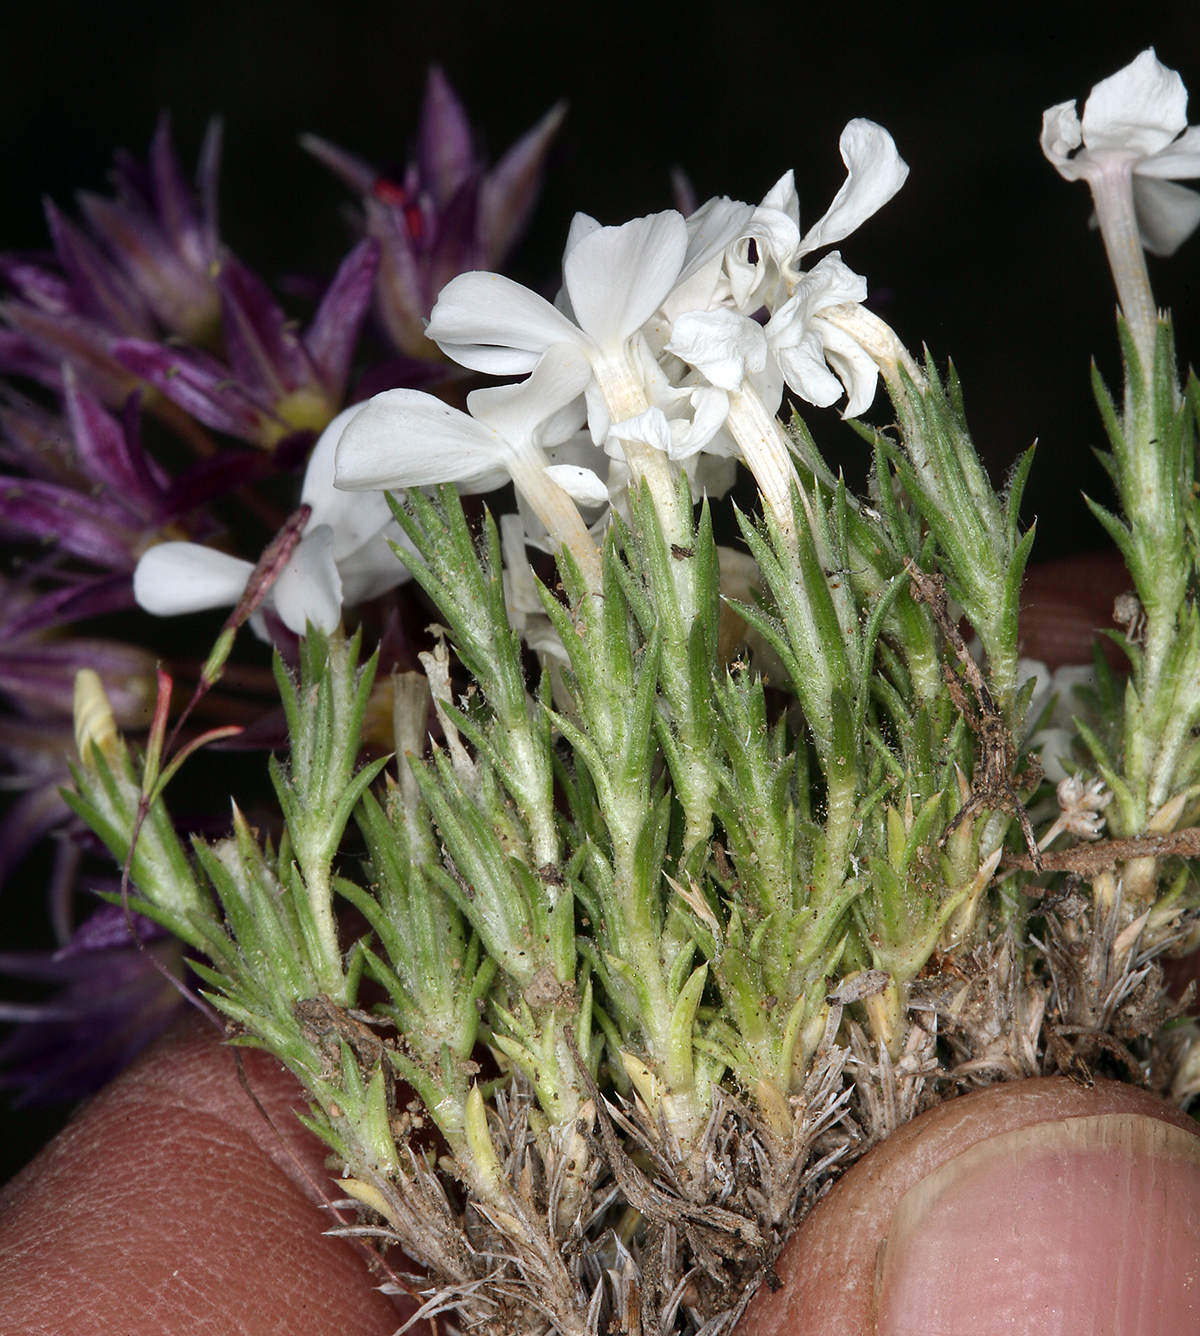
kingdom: Plantae
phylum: Tracheophyta
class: Magnoliopsida
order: Ericales
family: Polemoniaceae
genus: Phlox
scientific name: Phlox hoodii
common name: Moss phlox
